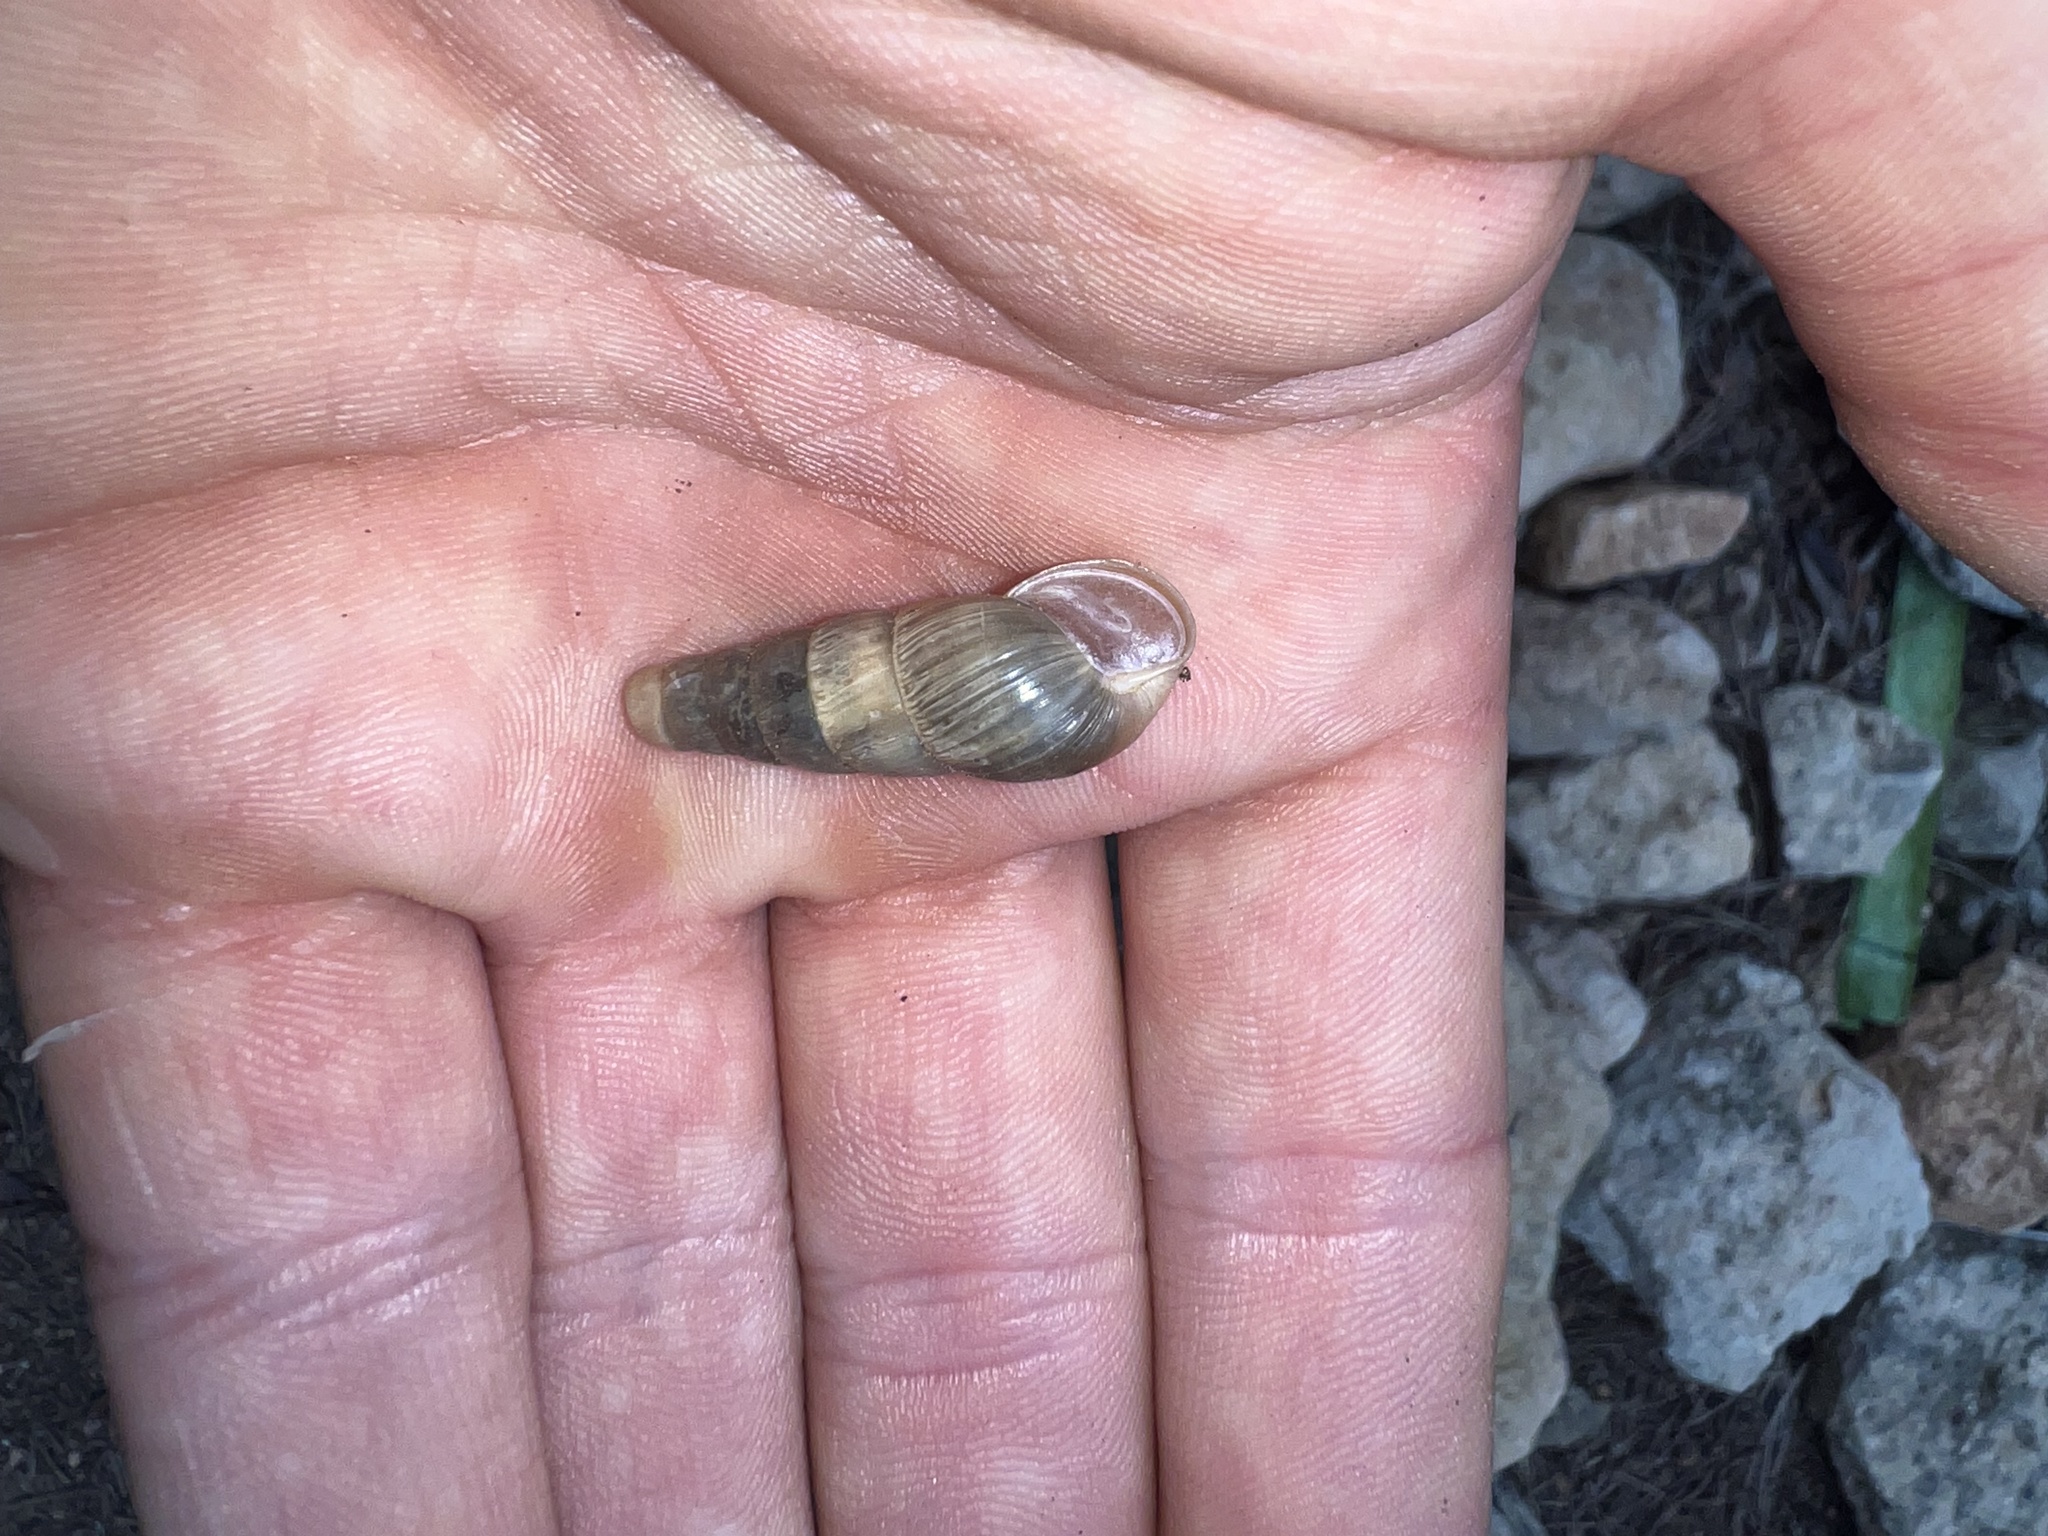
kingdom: Animalia
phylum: Mollusca
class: Gastropoda
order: Stylommatophora
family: Achatinidae
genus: Rumina
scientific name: Rumina decollata
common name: Decollate snail
